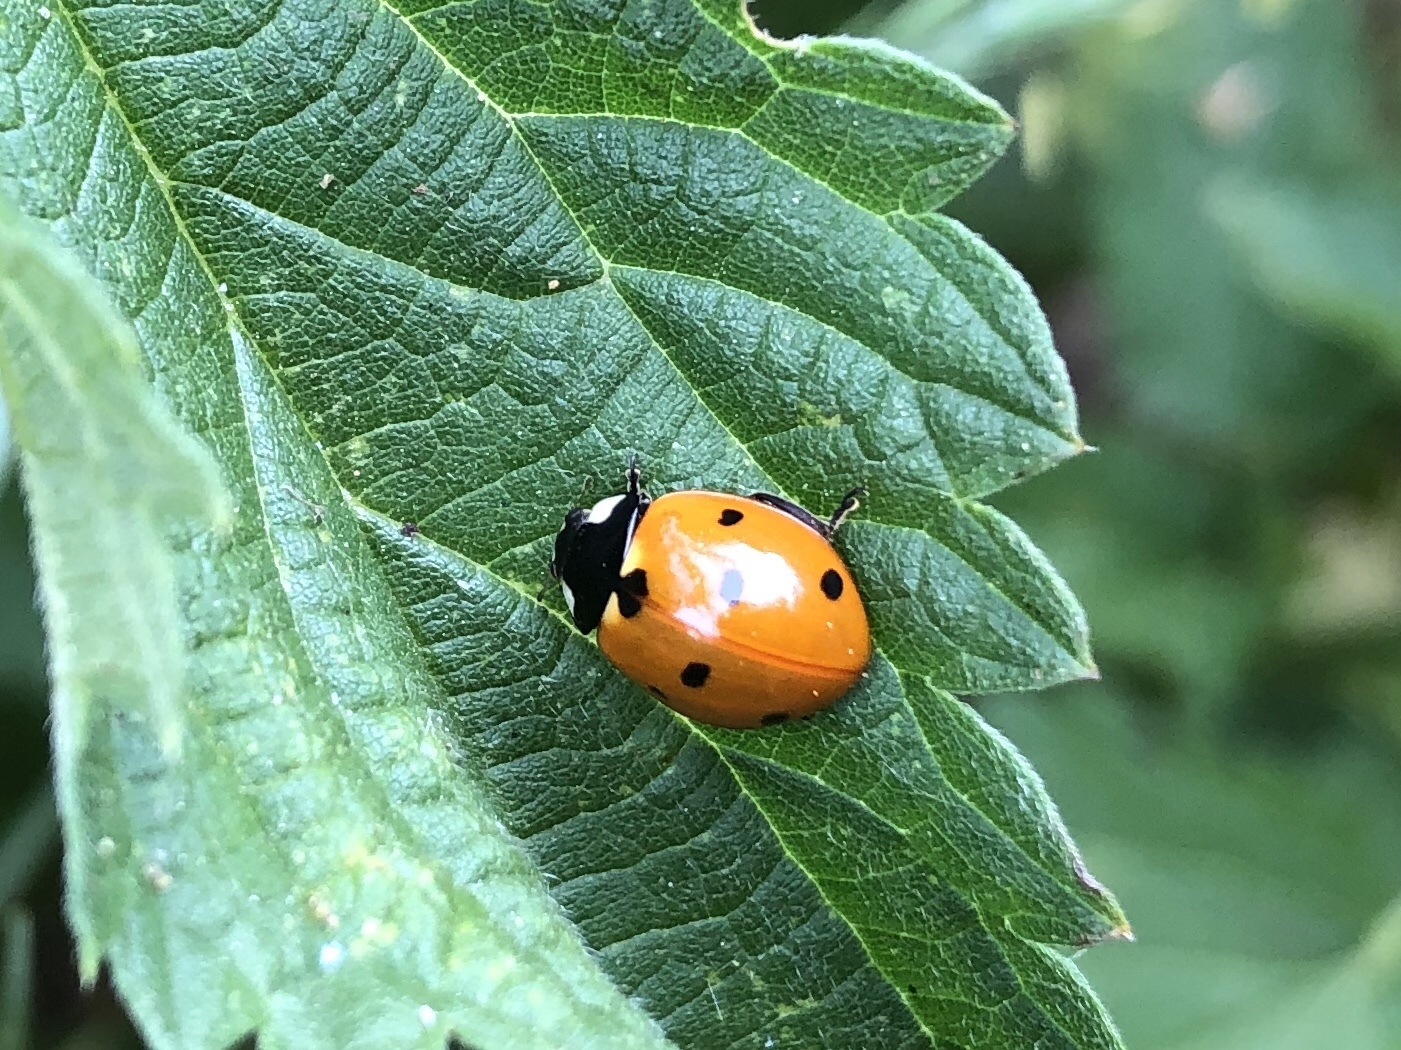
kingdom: Animalia
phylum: Arthropoda
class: Insecta
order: Coleoptera
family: Coccinellidae
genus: Coccinella
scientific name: Coccinella septempunctata
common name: Sevenspotted lady beetle
